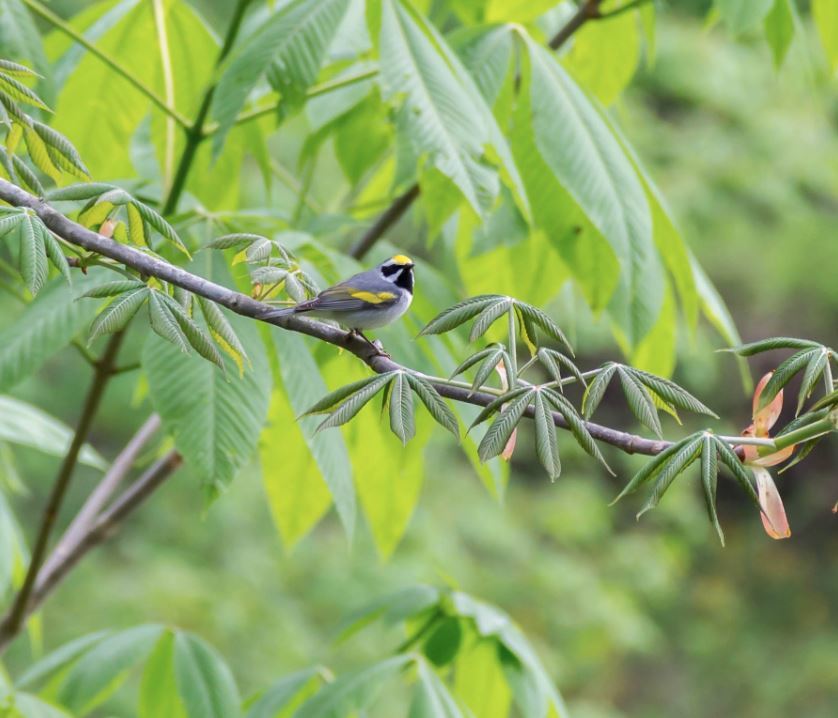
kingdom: Animalia
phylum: Chordata
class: Aves
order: Passeriformes
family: Parulidae
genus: Vermivora
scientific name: Vermivora chrysoptera
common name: Golden-winged warbler
